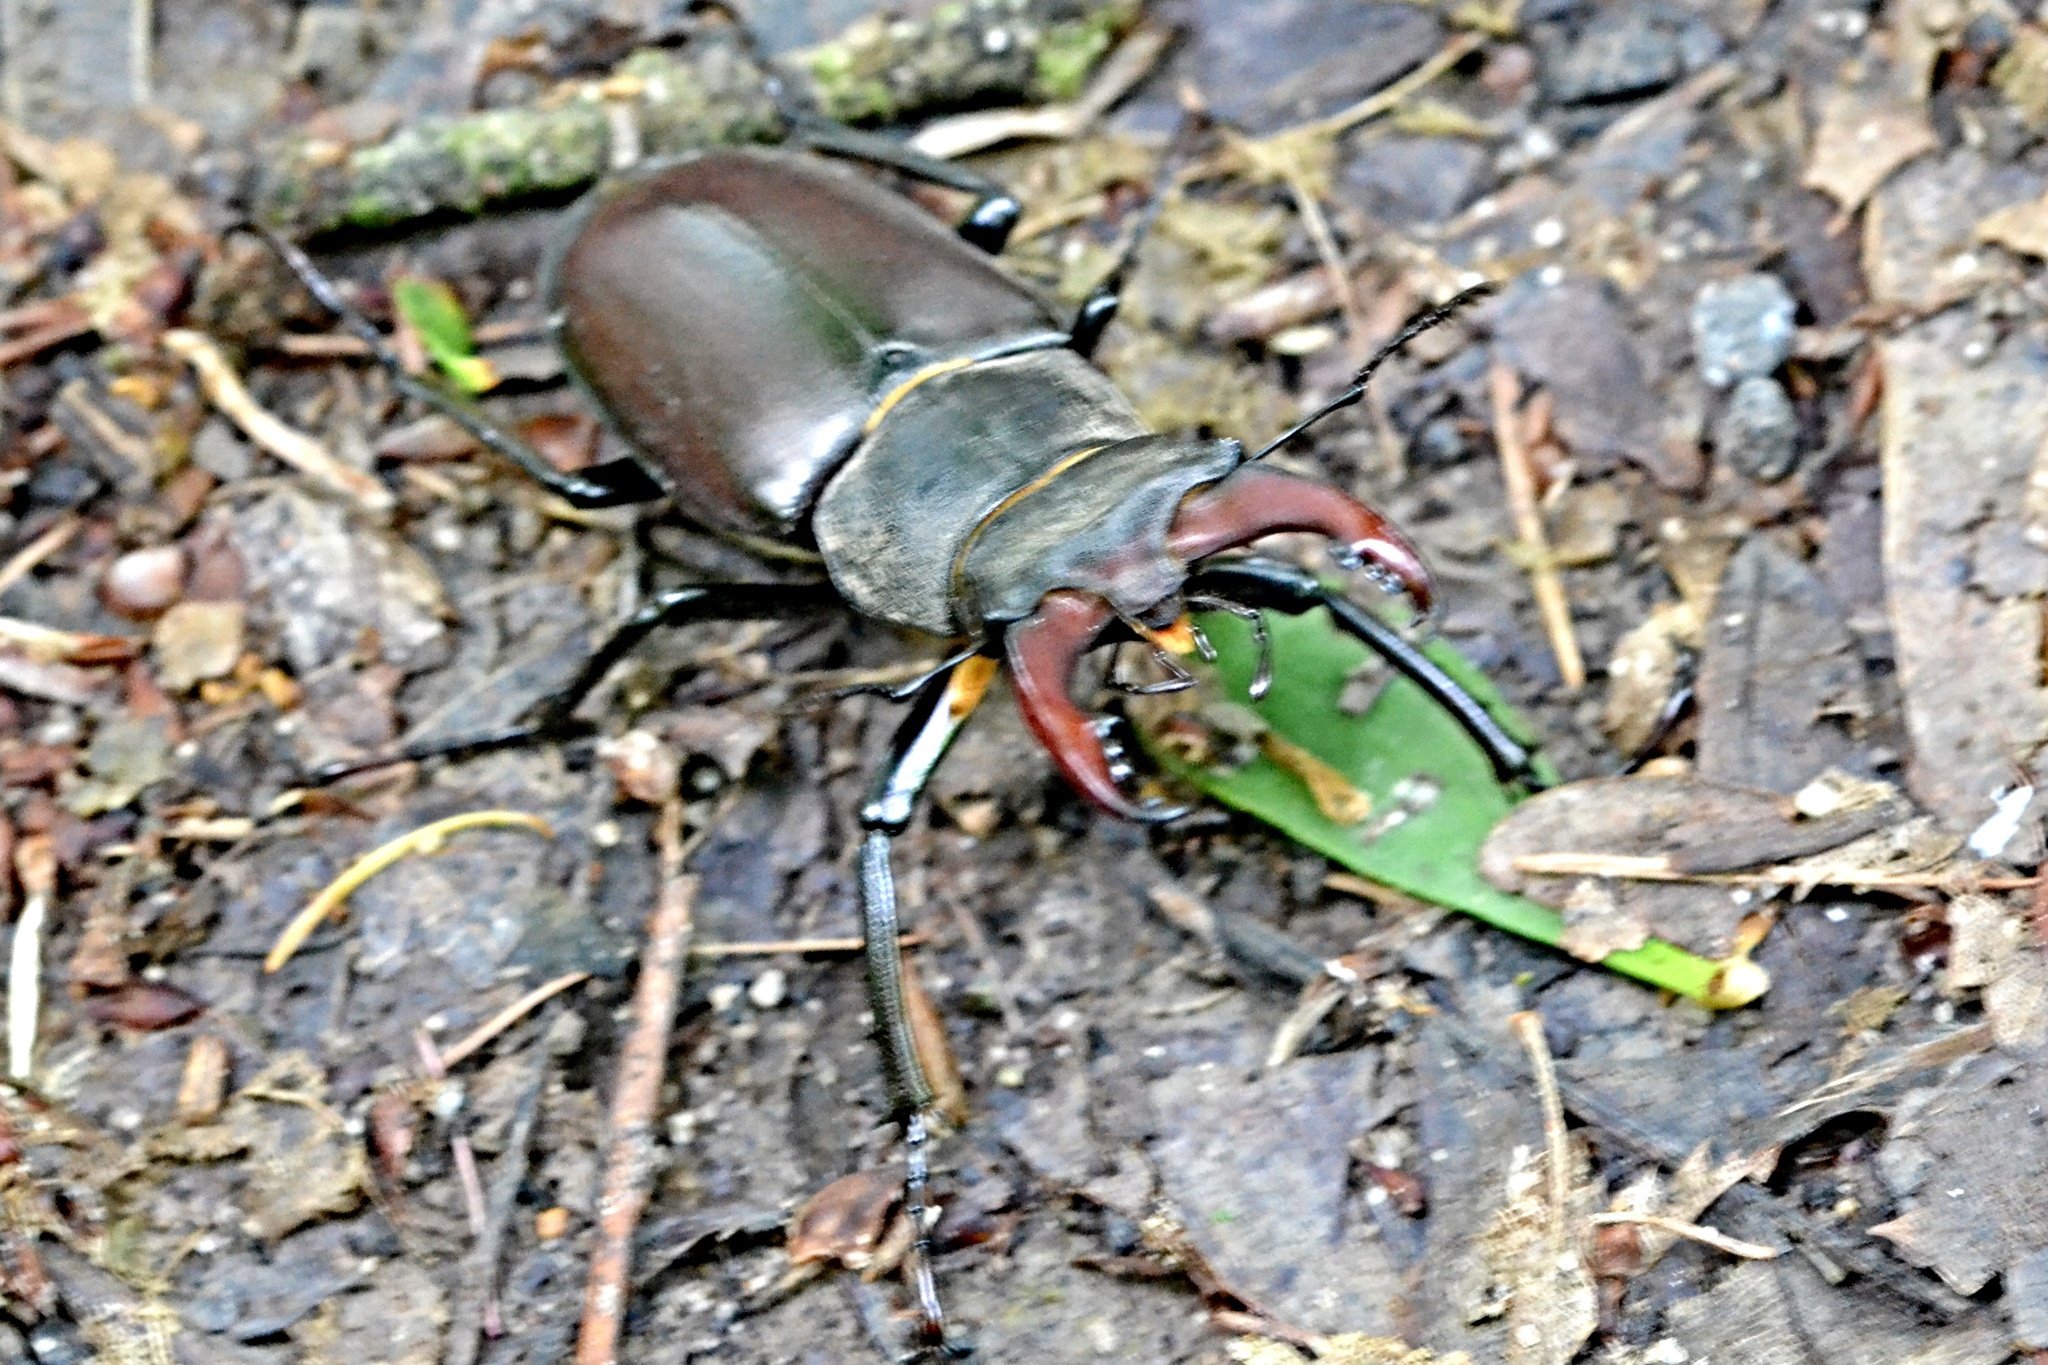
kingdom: Animalia
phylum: Arthropoda
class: Insecta
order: Coleoptera
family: Lucanidae
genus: Lucanus
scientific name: Lucanus cervus
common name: Stag beetle
